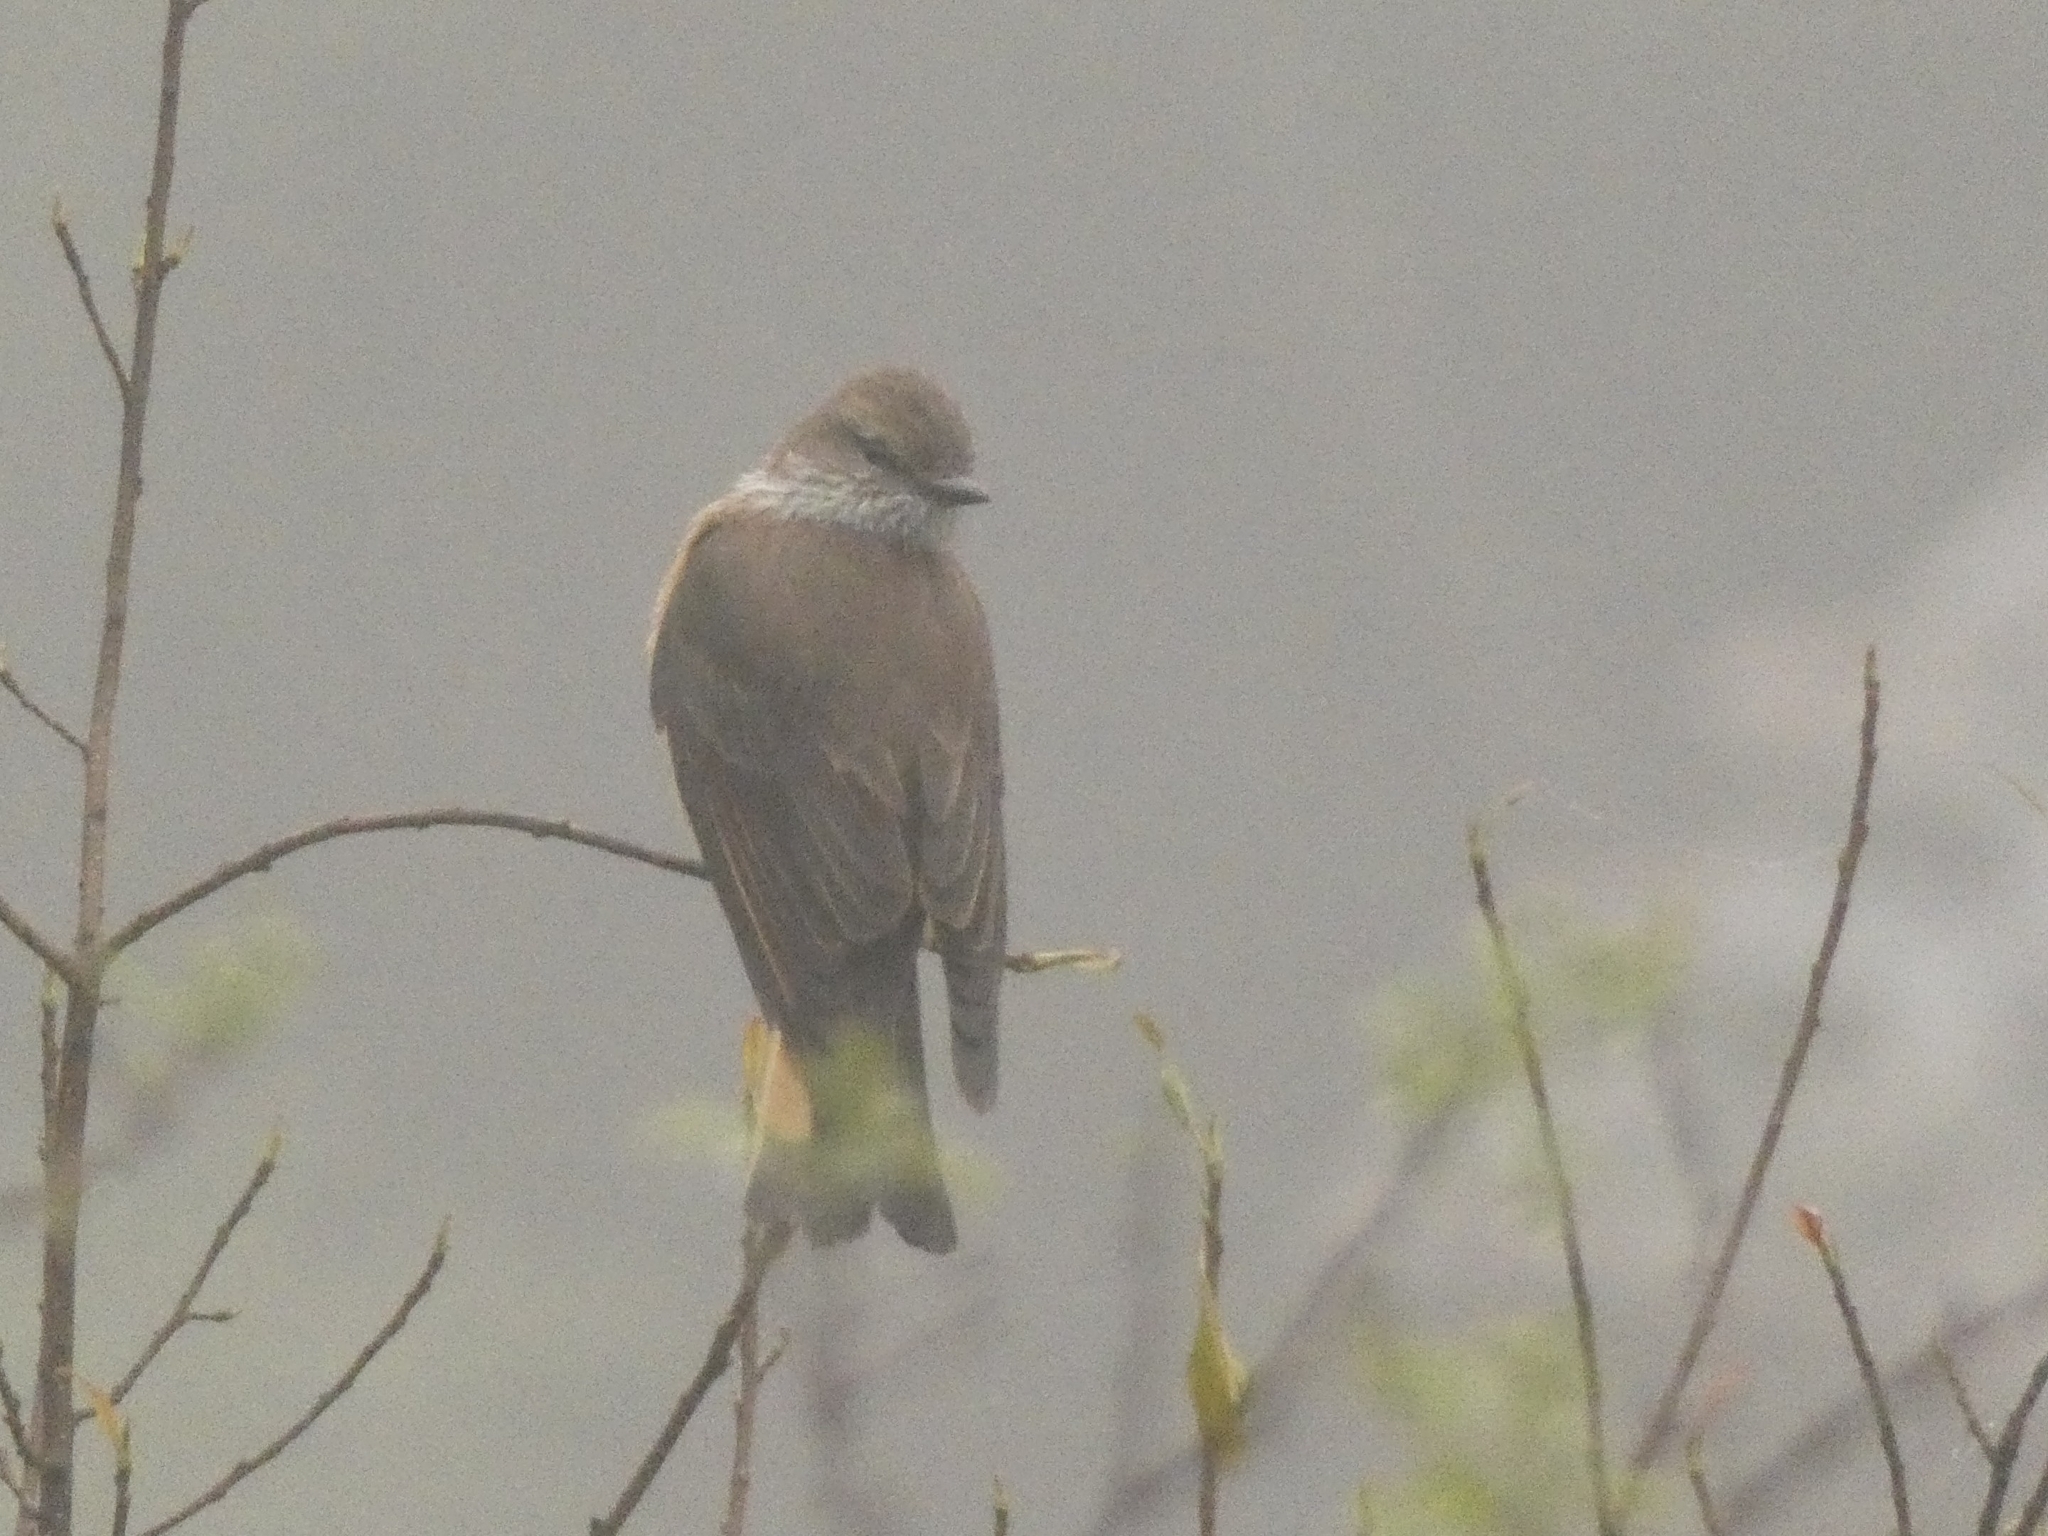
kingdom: Animalia
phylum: Chordata
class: Aves
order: Passeriformes
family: Tyrannidae
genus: Myiotheretes
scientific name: Myiotheretes striaticollis
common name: Streak-throated bush tyrant
